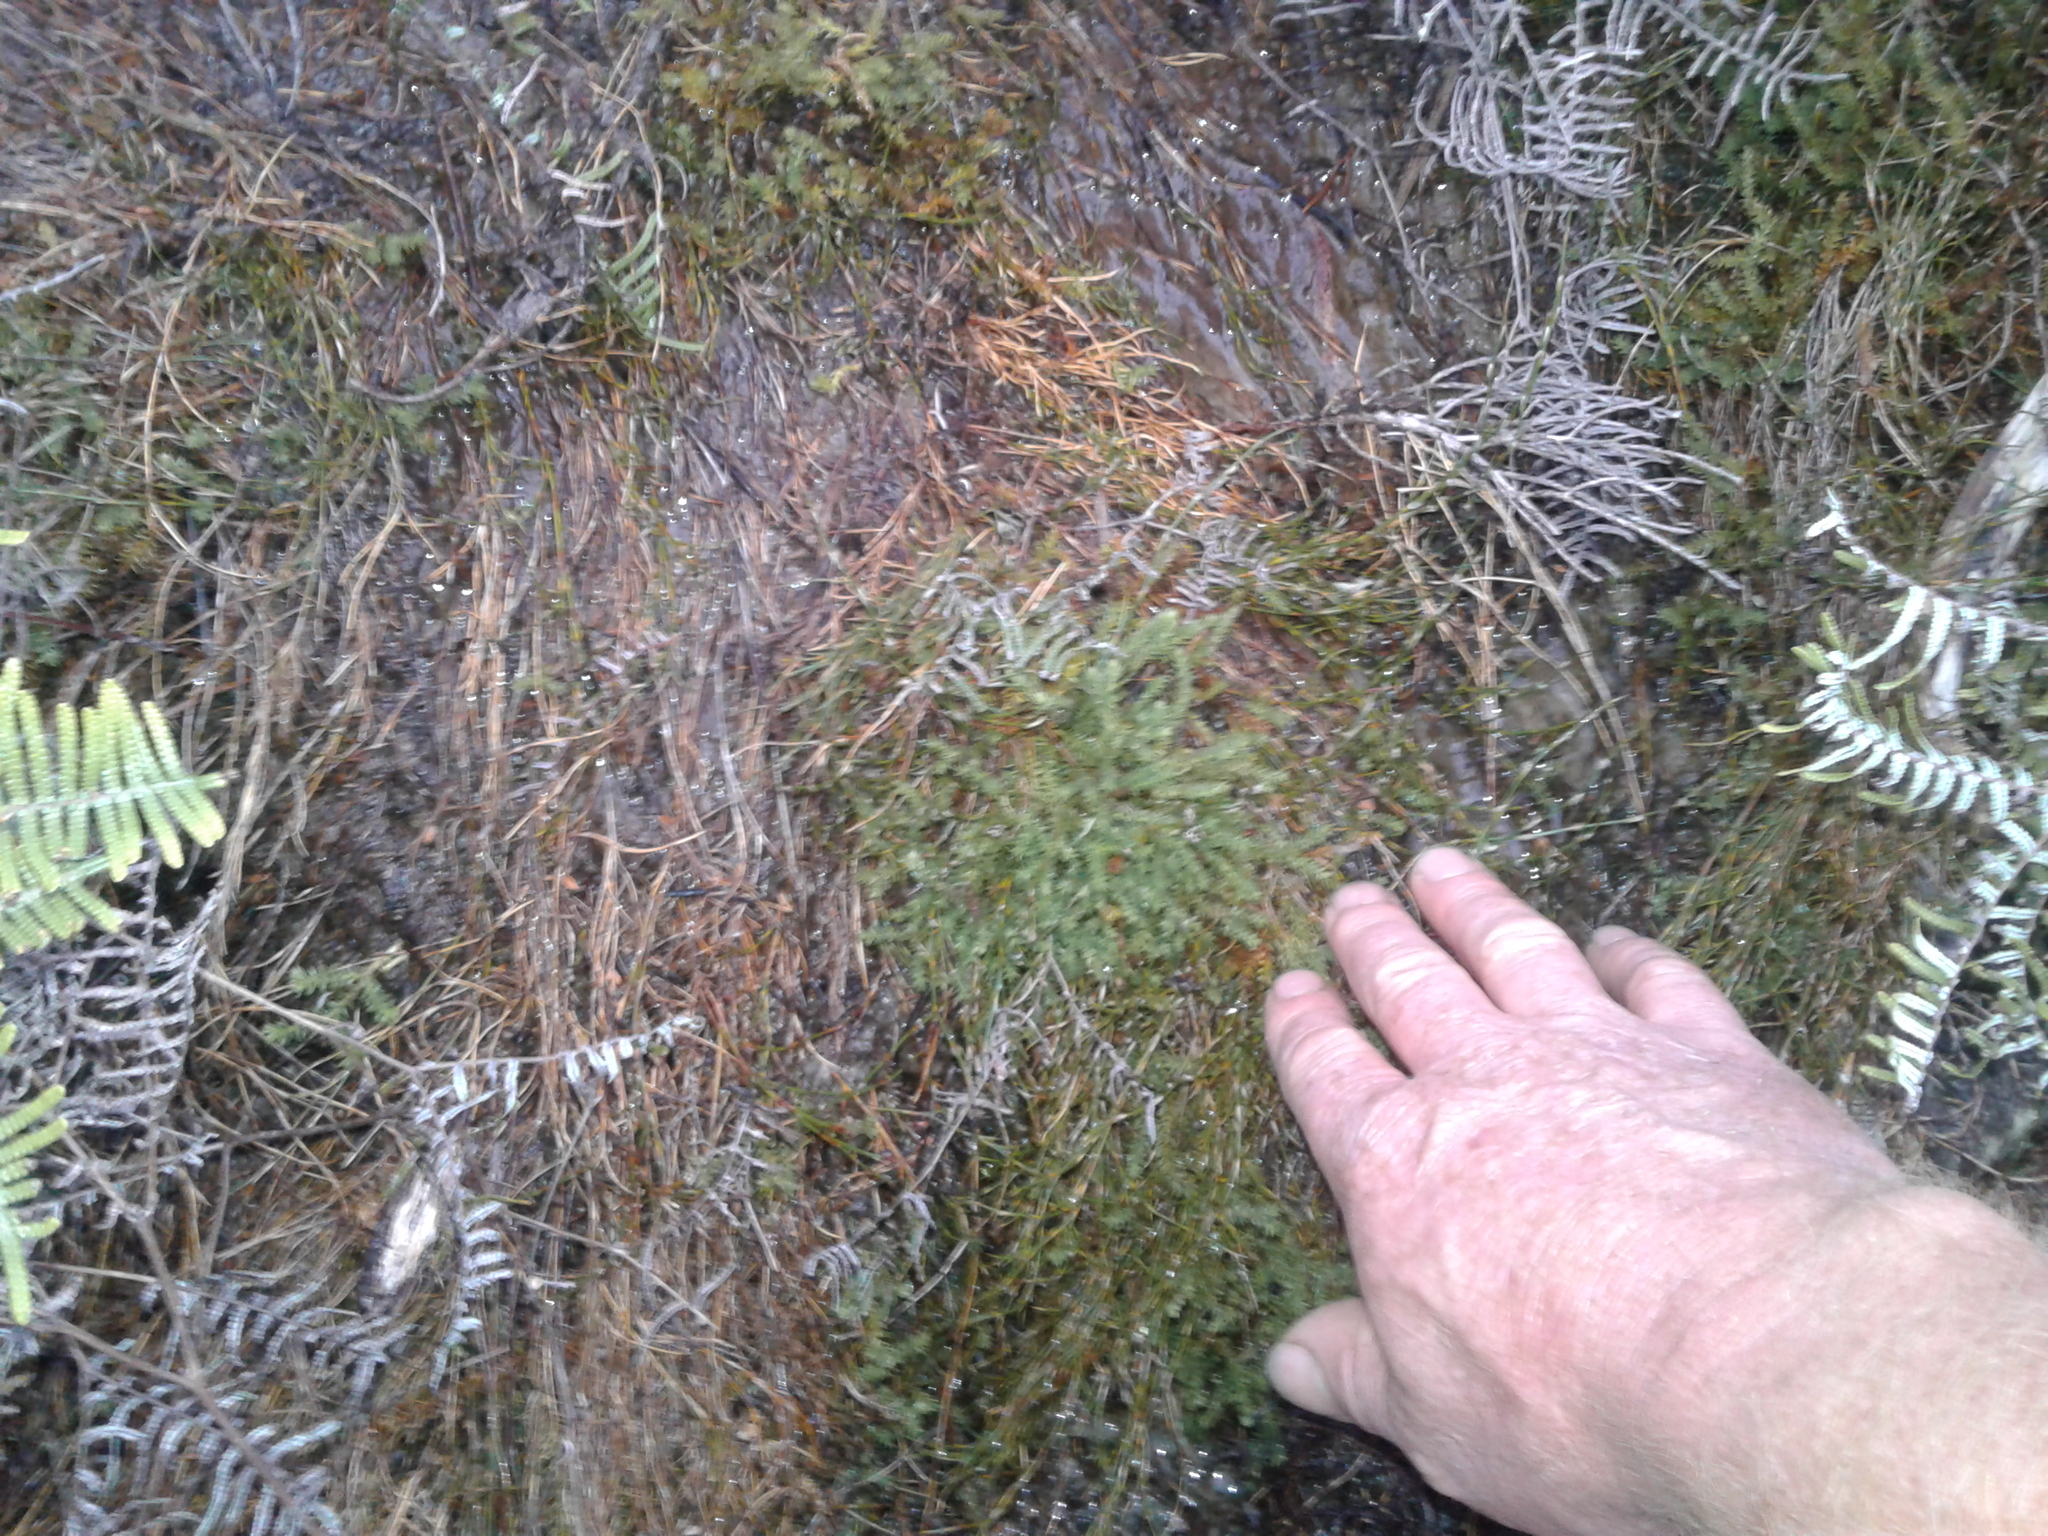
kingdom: Plantae
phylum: Tracheophyta
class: Lycopodiopsida
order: Lycopodiales
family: Lycopodiaceae
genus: Lateristachys
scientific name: Lateristachys diffusa
